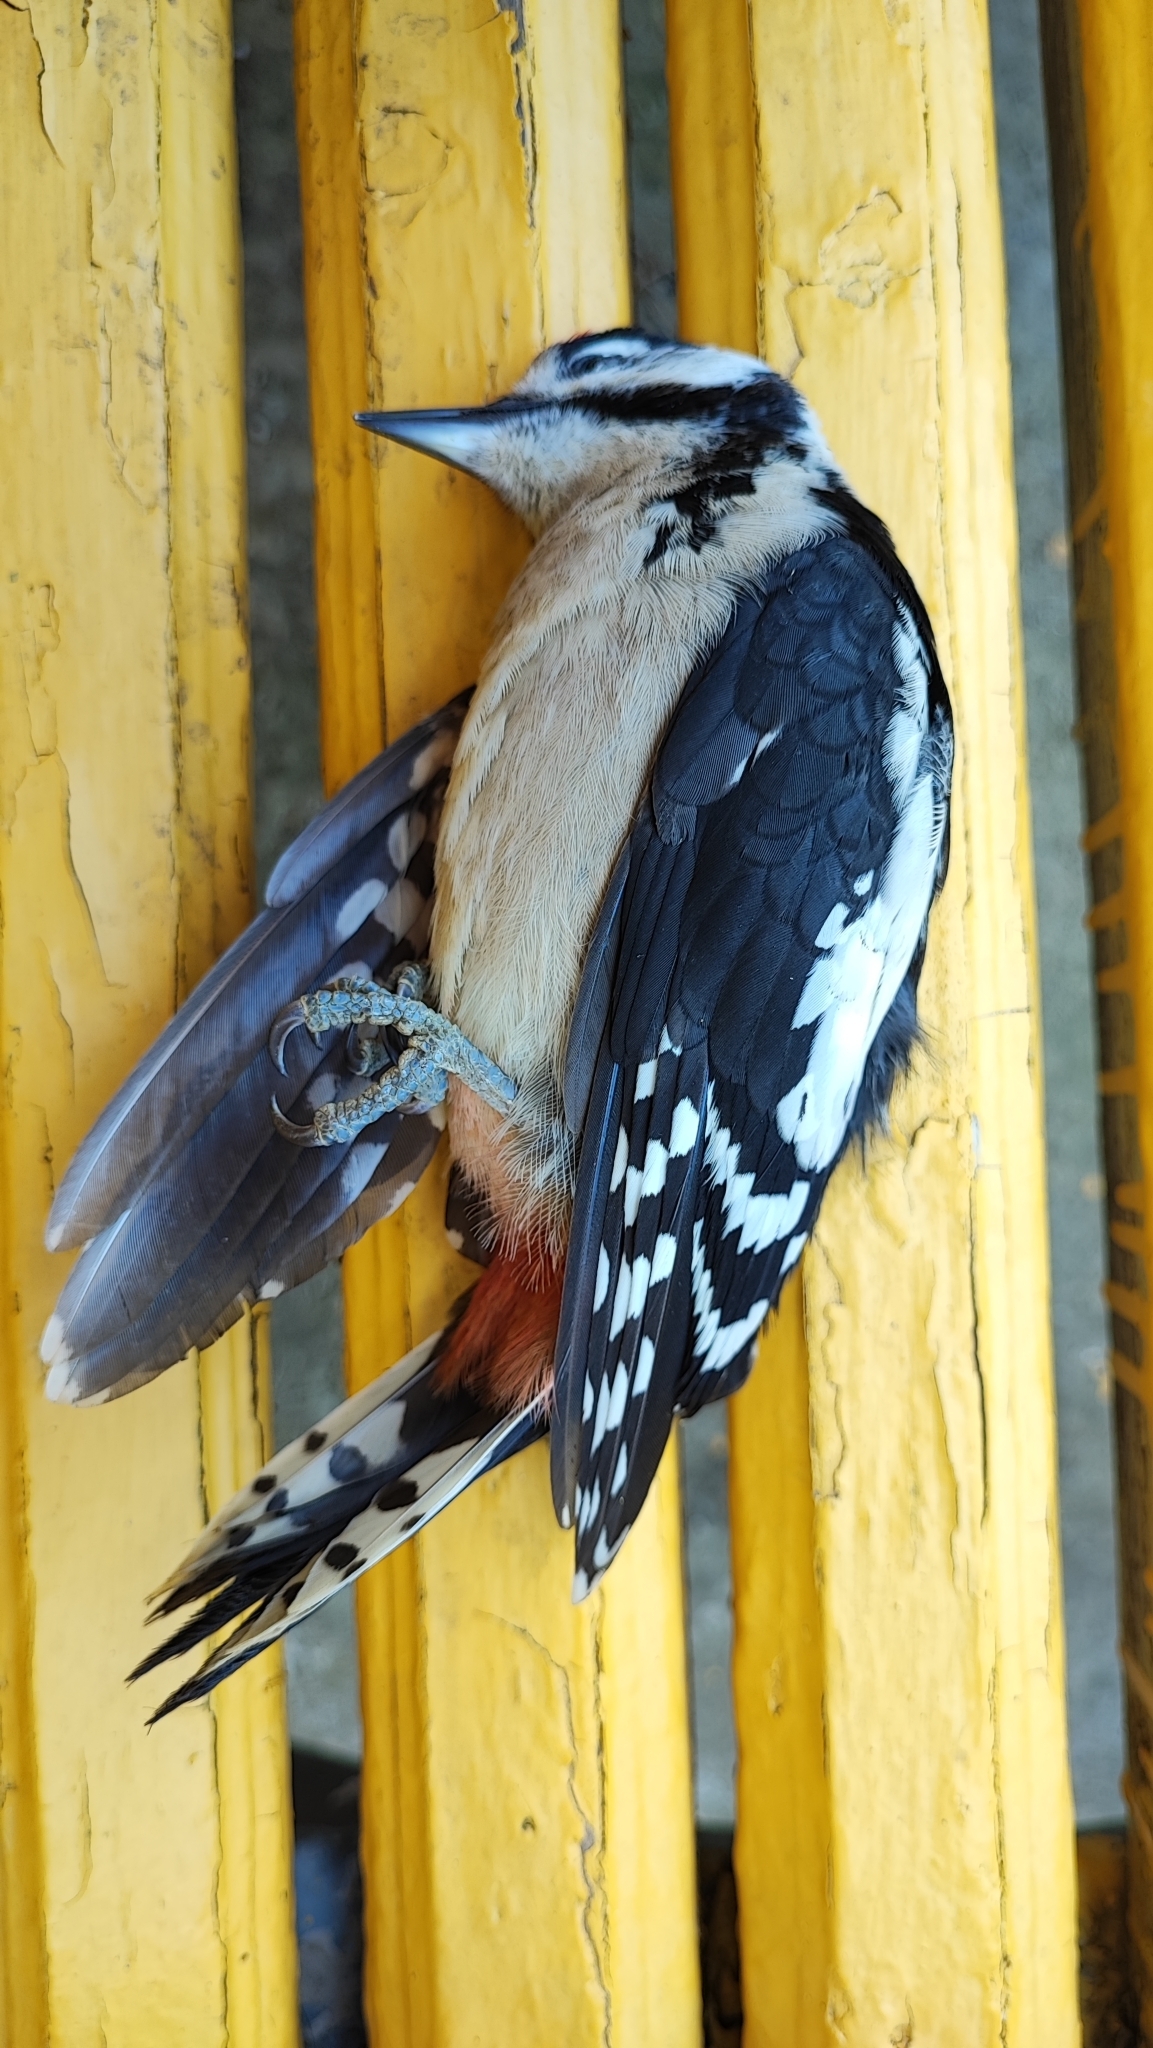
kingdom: Animalia
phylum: Chordata
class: Aves
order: Piciformes
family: Picidae
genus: Dendrocopos
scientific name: Dendrocopos major
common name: Great spotted woodpecker
